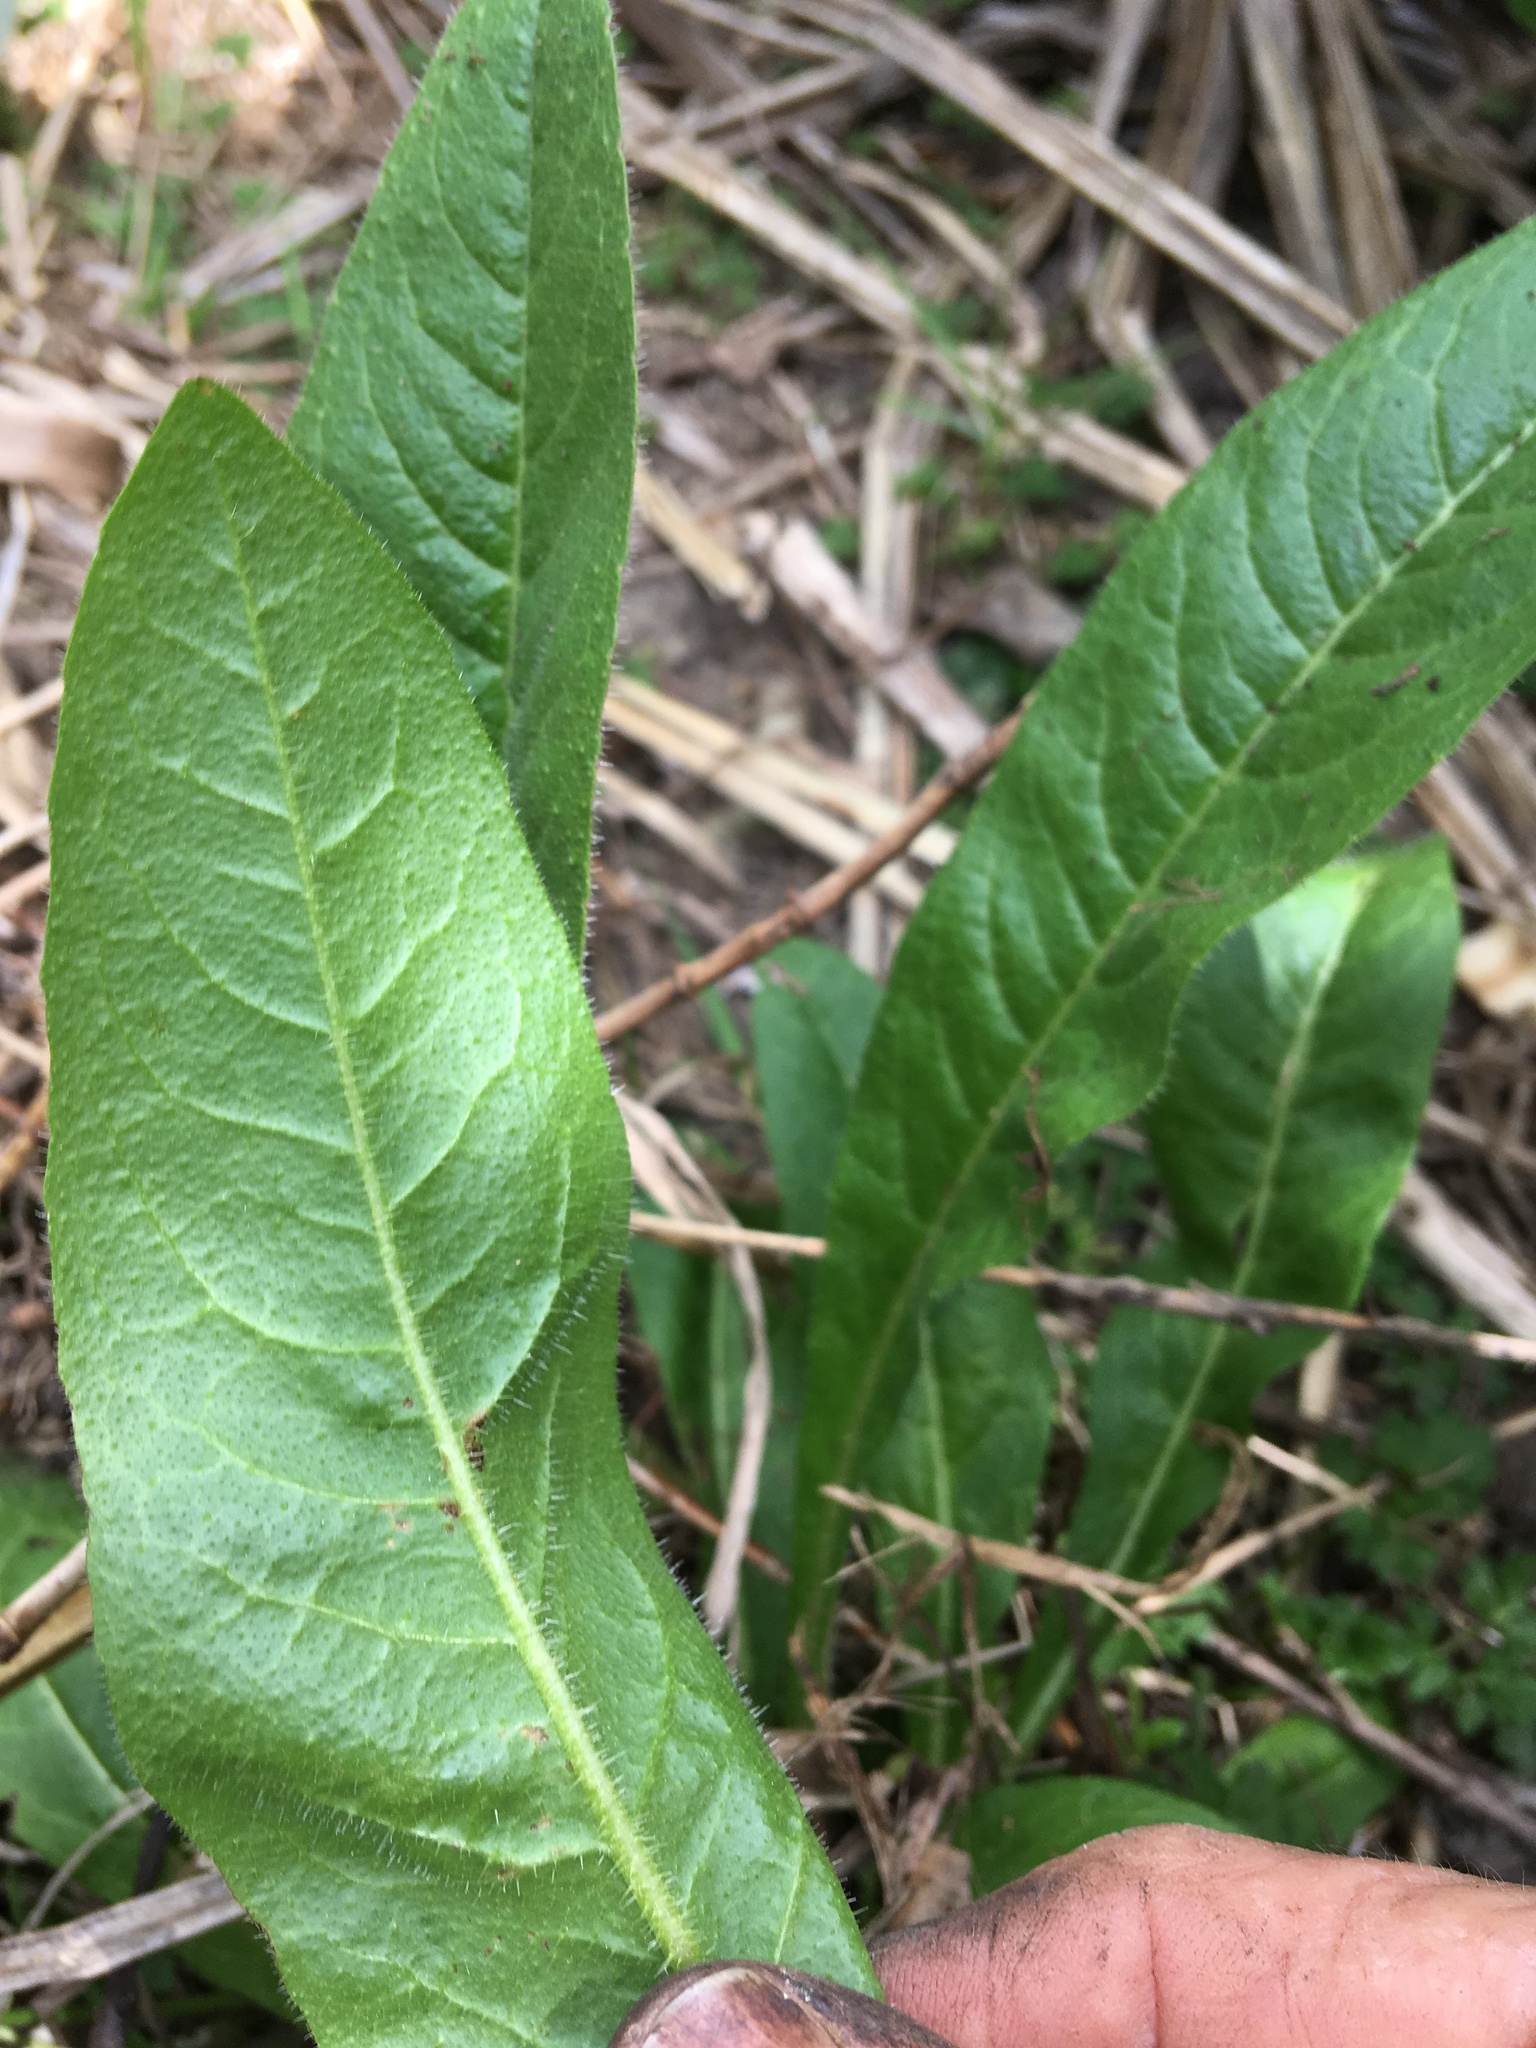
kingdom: Plantae
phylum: Tracheophyta
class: Magnoliopsida
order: Asterales
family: Asteraceae
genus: Helminthotheca
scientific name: Helminthotheca echioides
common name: Ox-tongue
